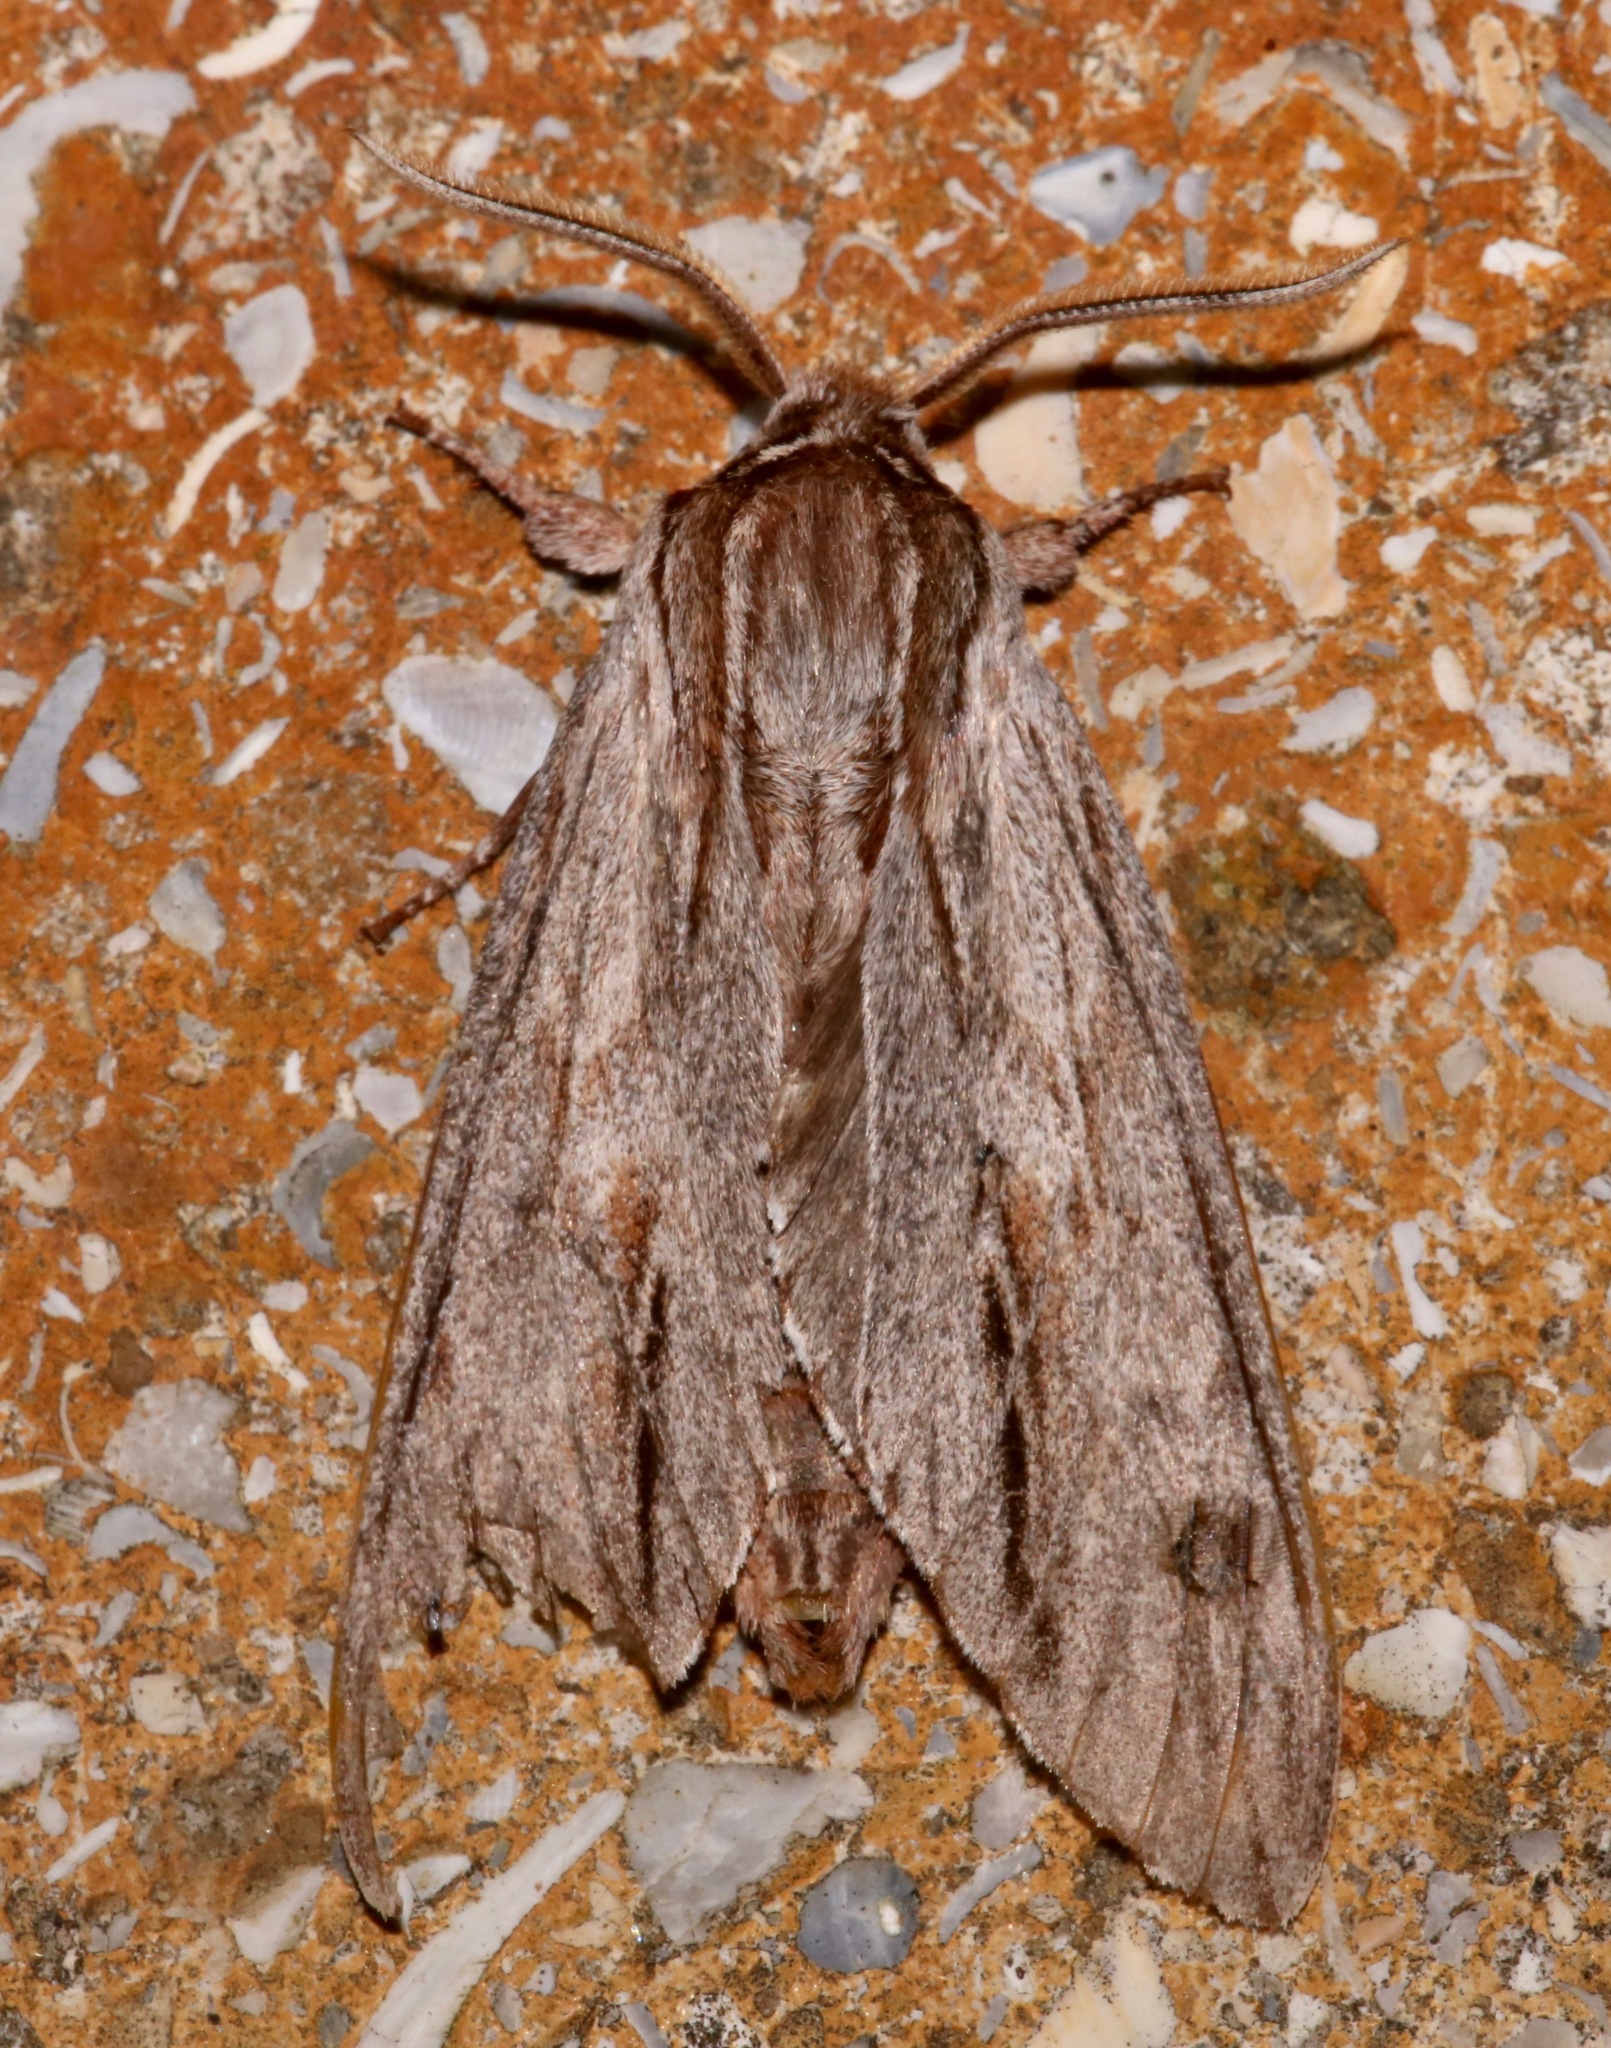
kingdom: Animalia
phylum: Arthropoda
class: Insecta
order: Lepidoptera
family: Sphingidae
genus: Isoparce
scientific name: Isoparce cupressi
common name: Cypress sphinx
